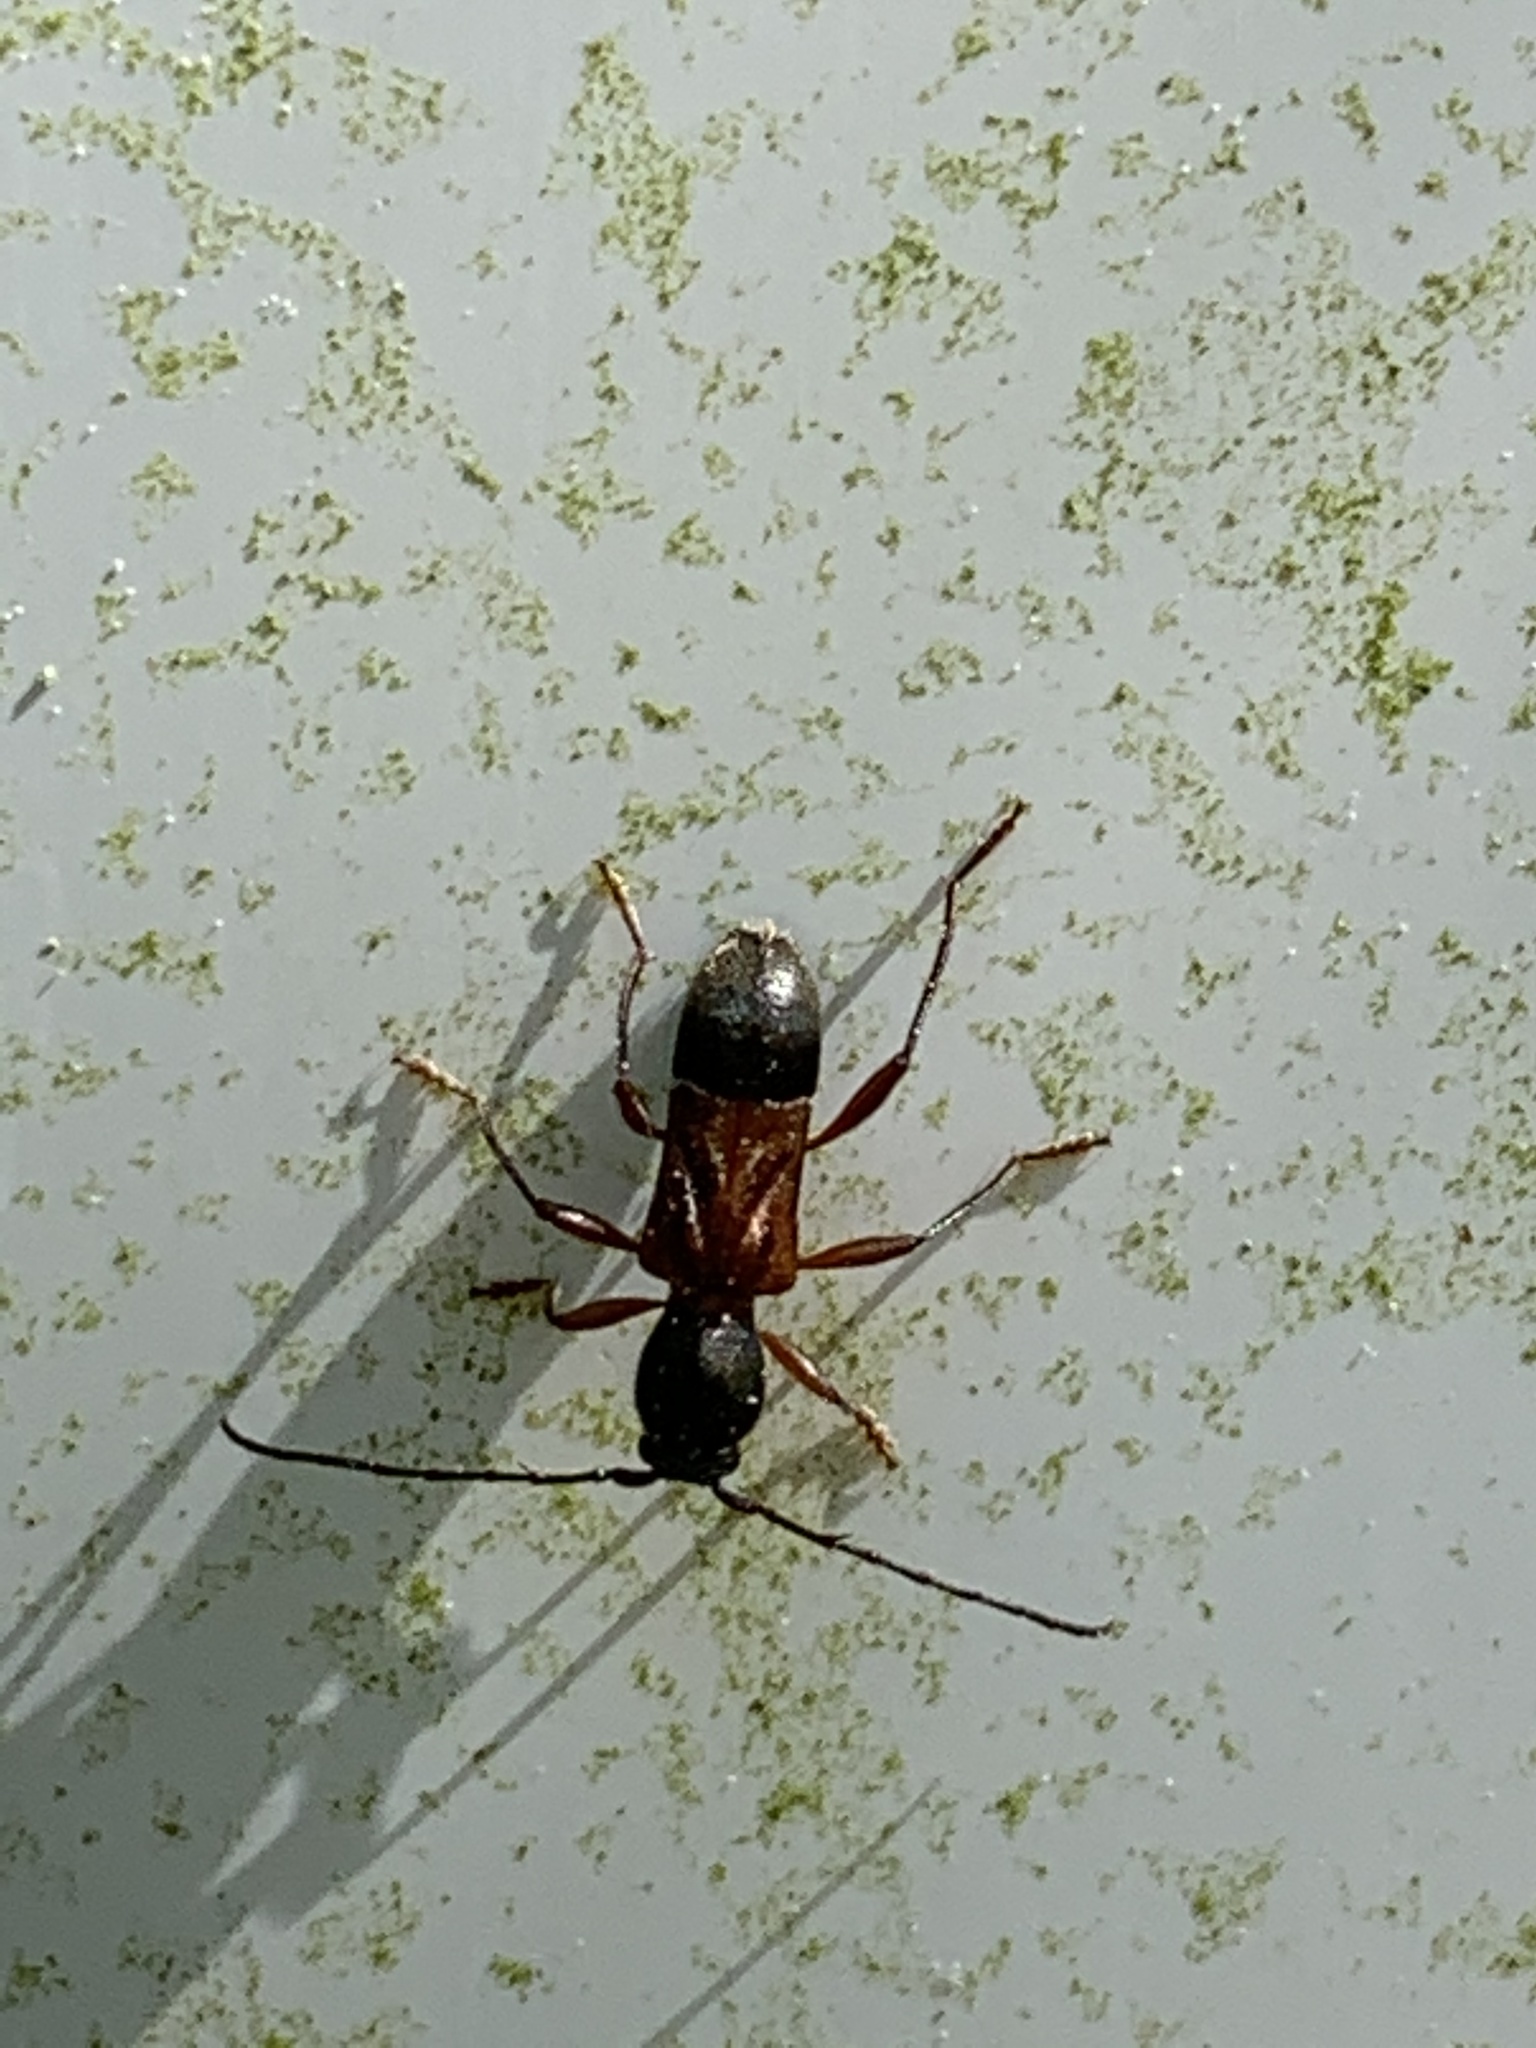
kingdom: Animalia
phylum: Arthropoda
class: Insecta
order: Coleoptera
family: Cerambycidae
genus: Cyrtophorus
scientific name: Cyrtophorus verrucosus
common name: Ant-like longhorn beetle
